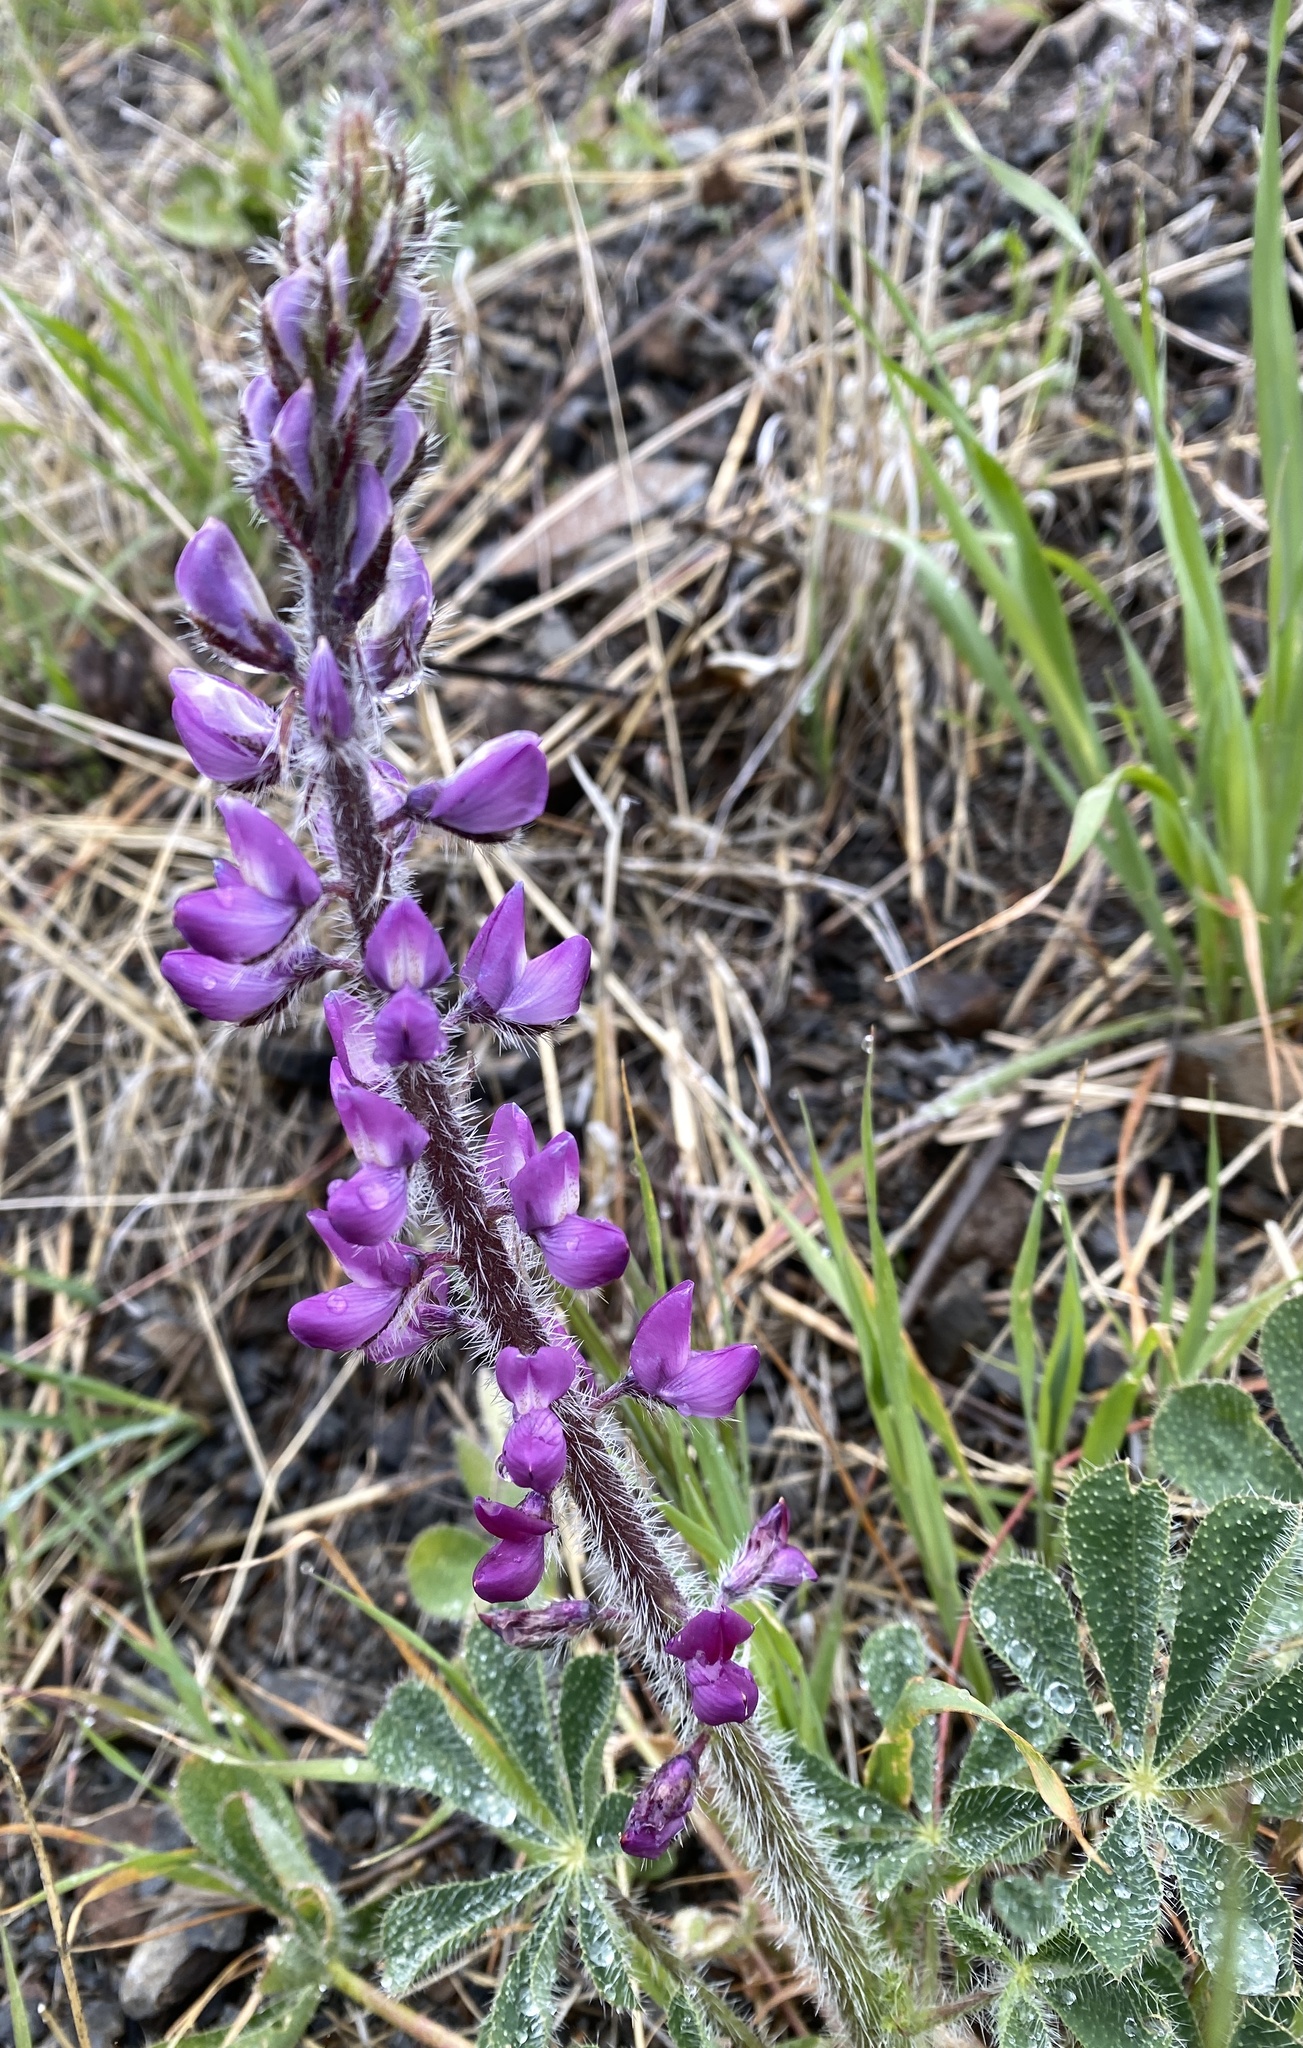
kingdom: Plantae
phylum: Tracheophyta
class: Magnoliopsida
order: Fabales
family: Fabaceae
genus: Lupinus
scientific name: Lupinus hirsutissimus
